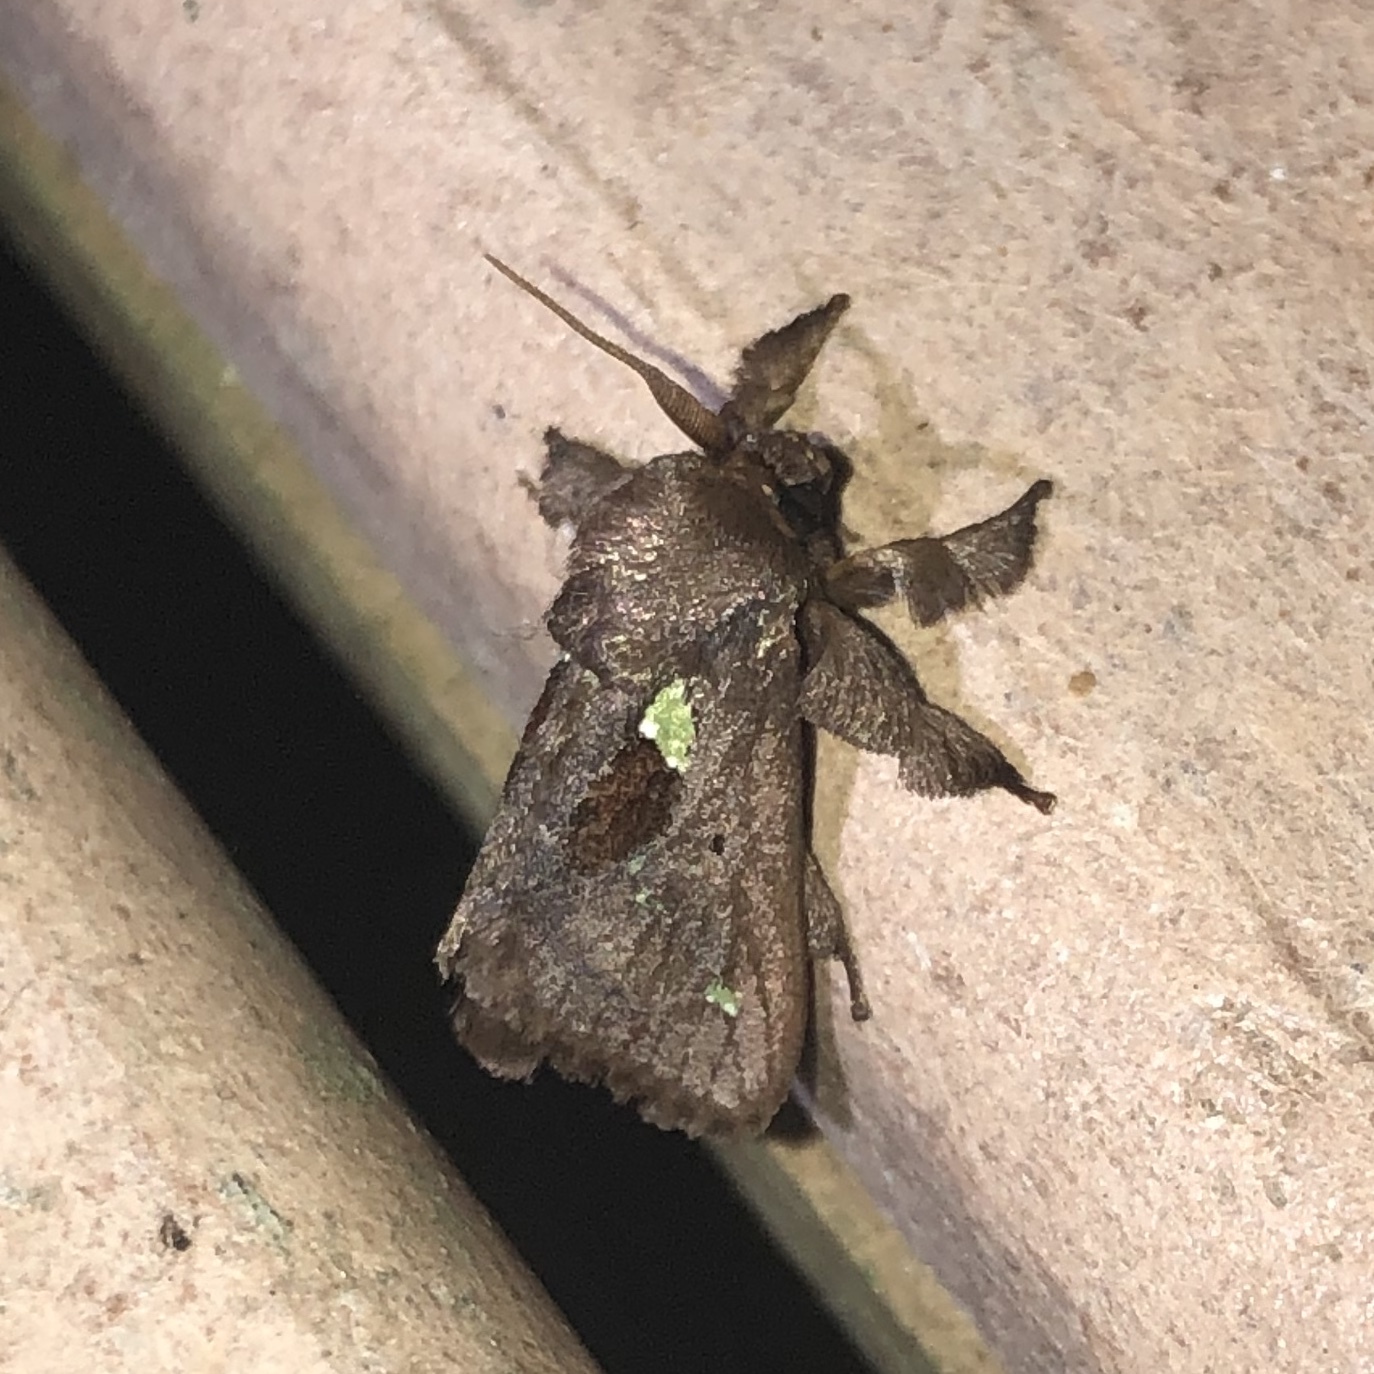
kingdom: Animalia
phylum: Arthropoda
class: Insecta
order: Lepidoptera
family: Limacodidae
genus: Euclea
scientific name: Euclea mesoamericana
